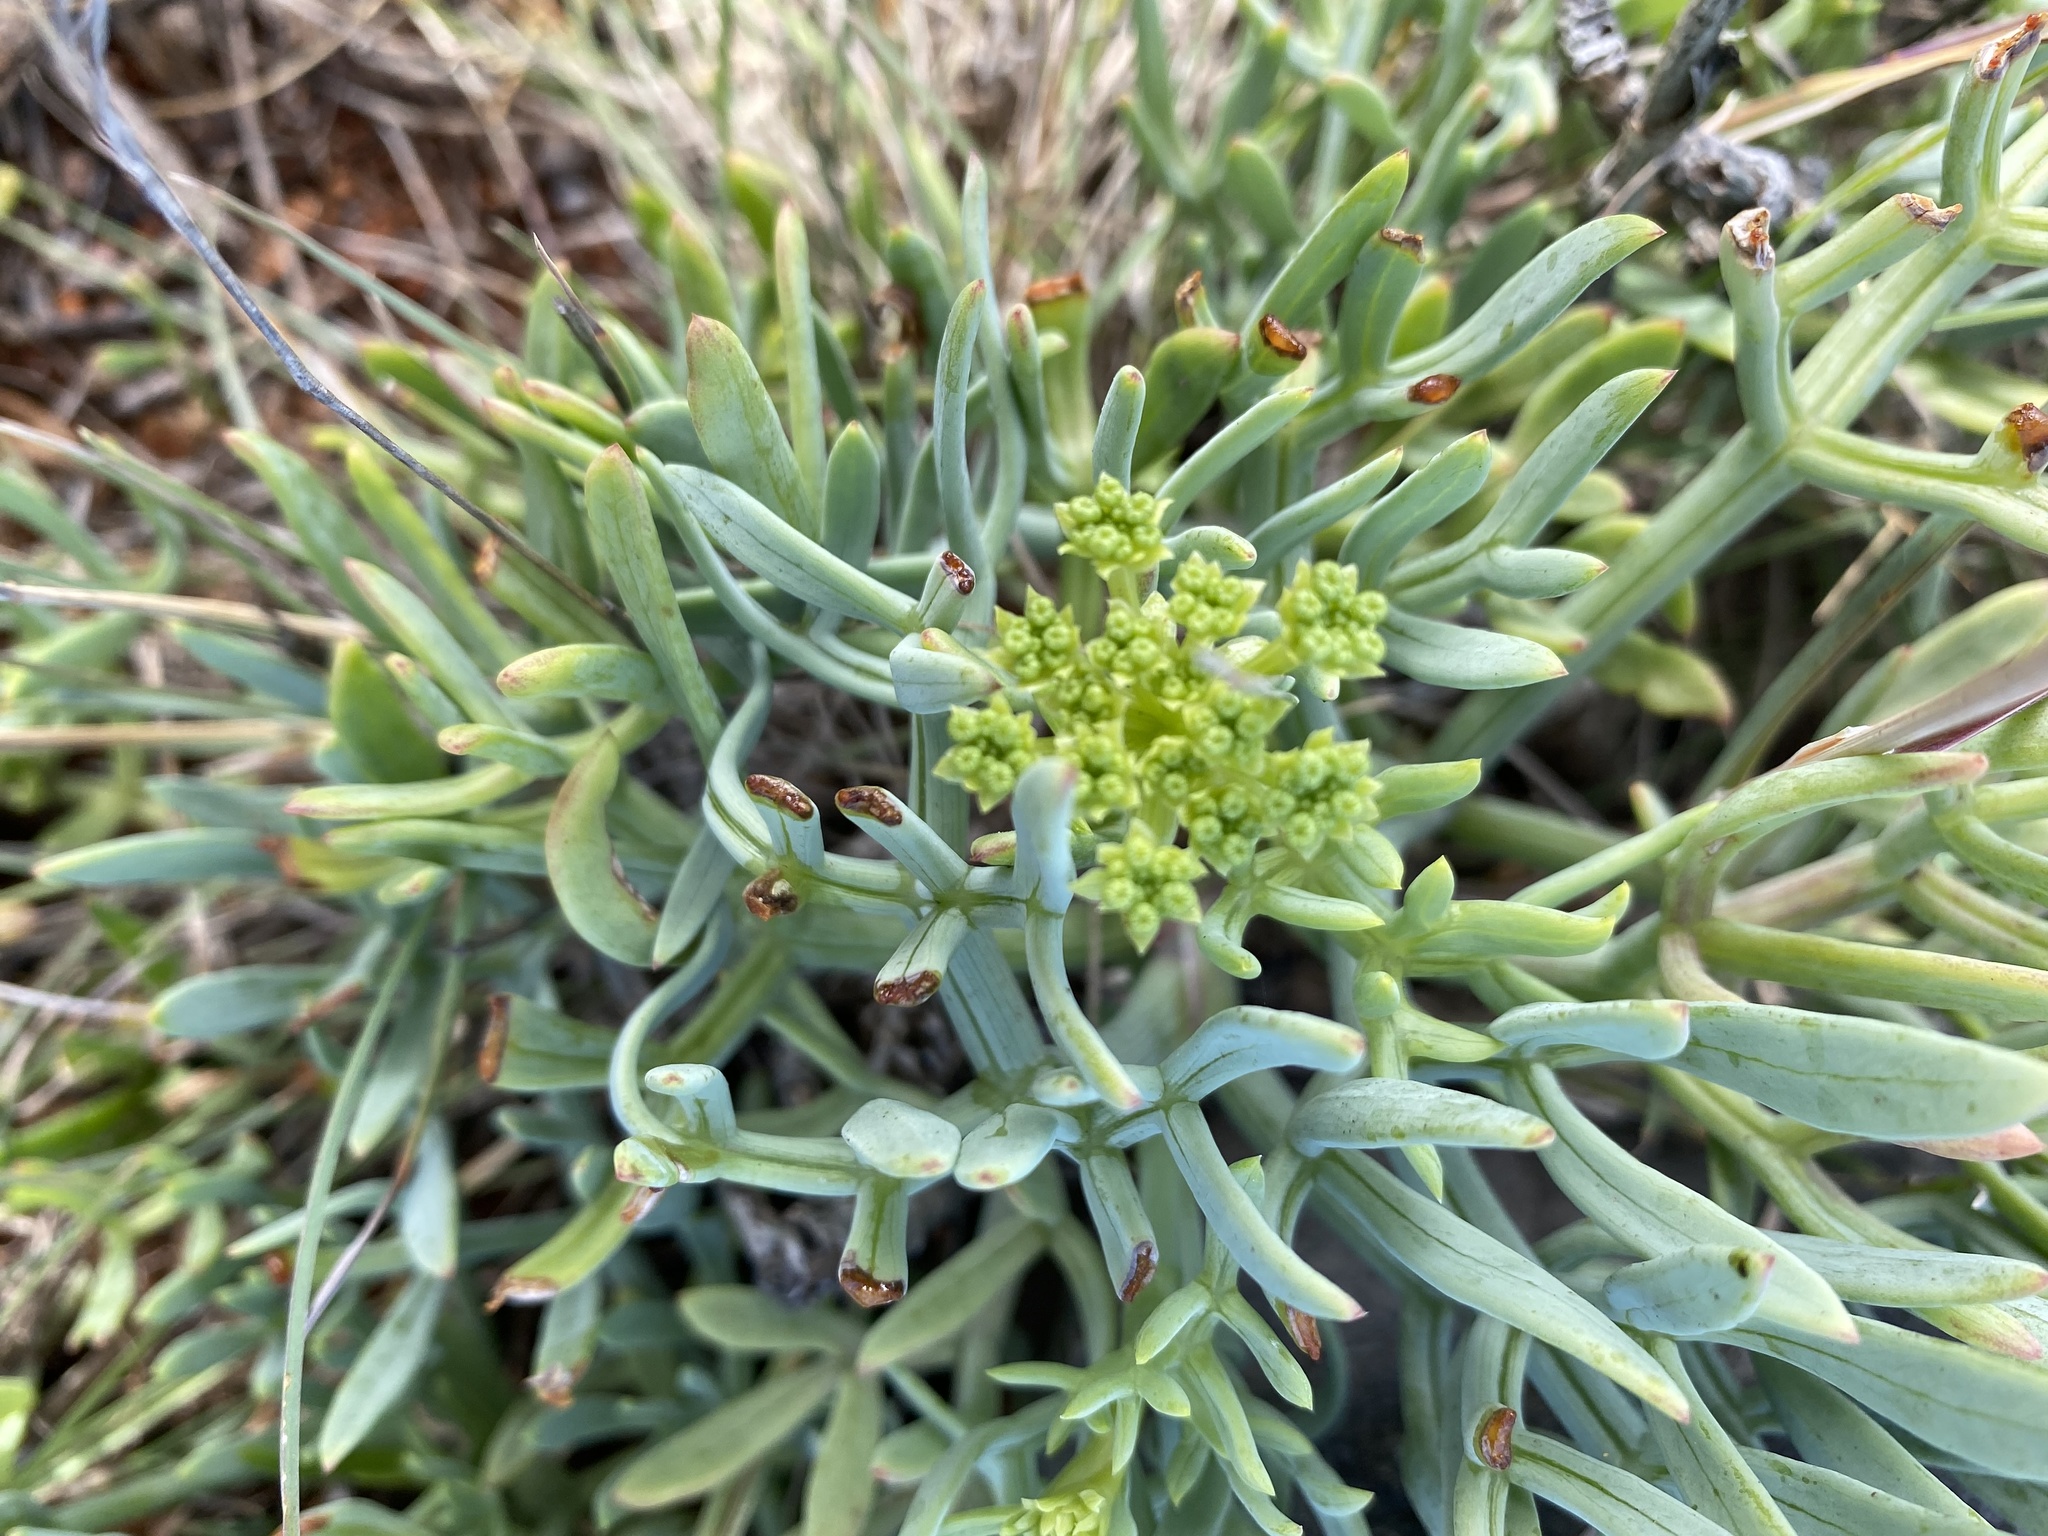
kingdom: Plantae
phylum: Tracheophyta
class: Magnoliopsida
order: Apiales
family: Apiaceae
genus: Crithmum
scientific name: Crithmum maritimum
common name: Rock samphire
